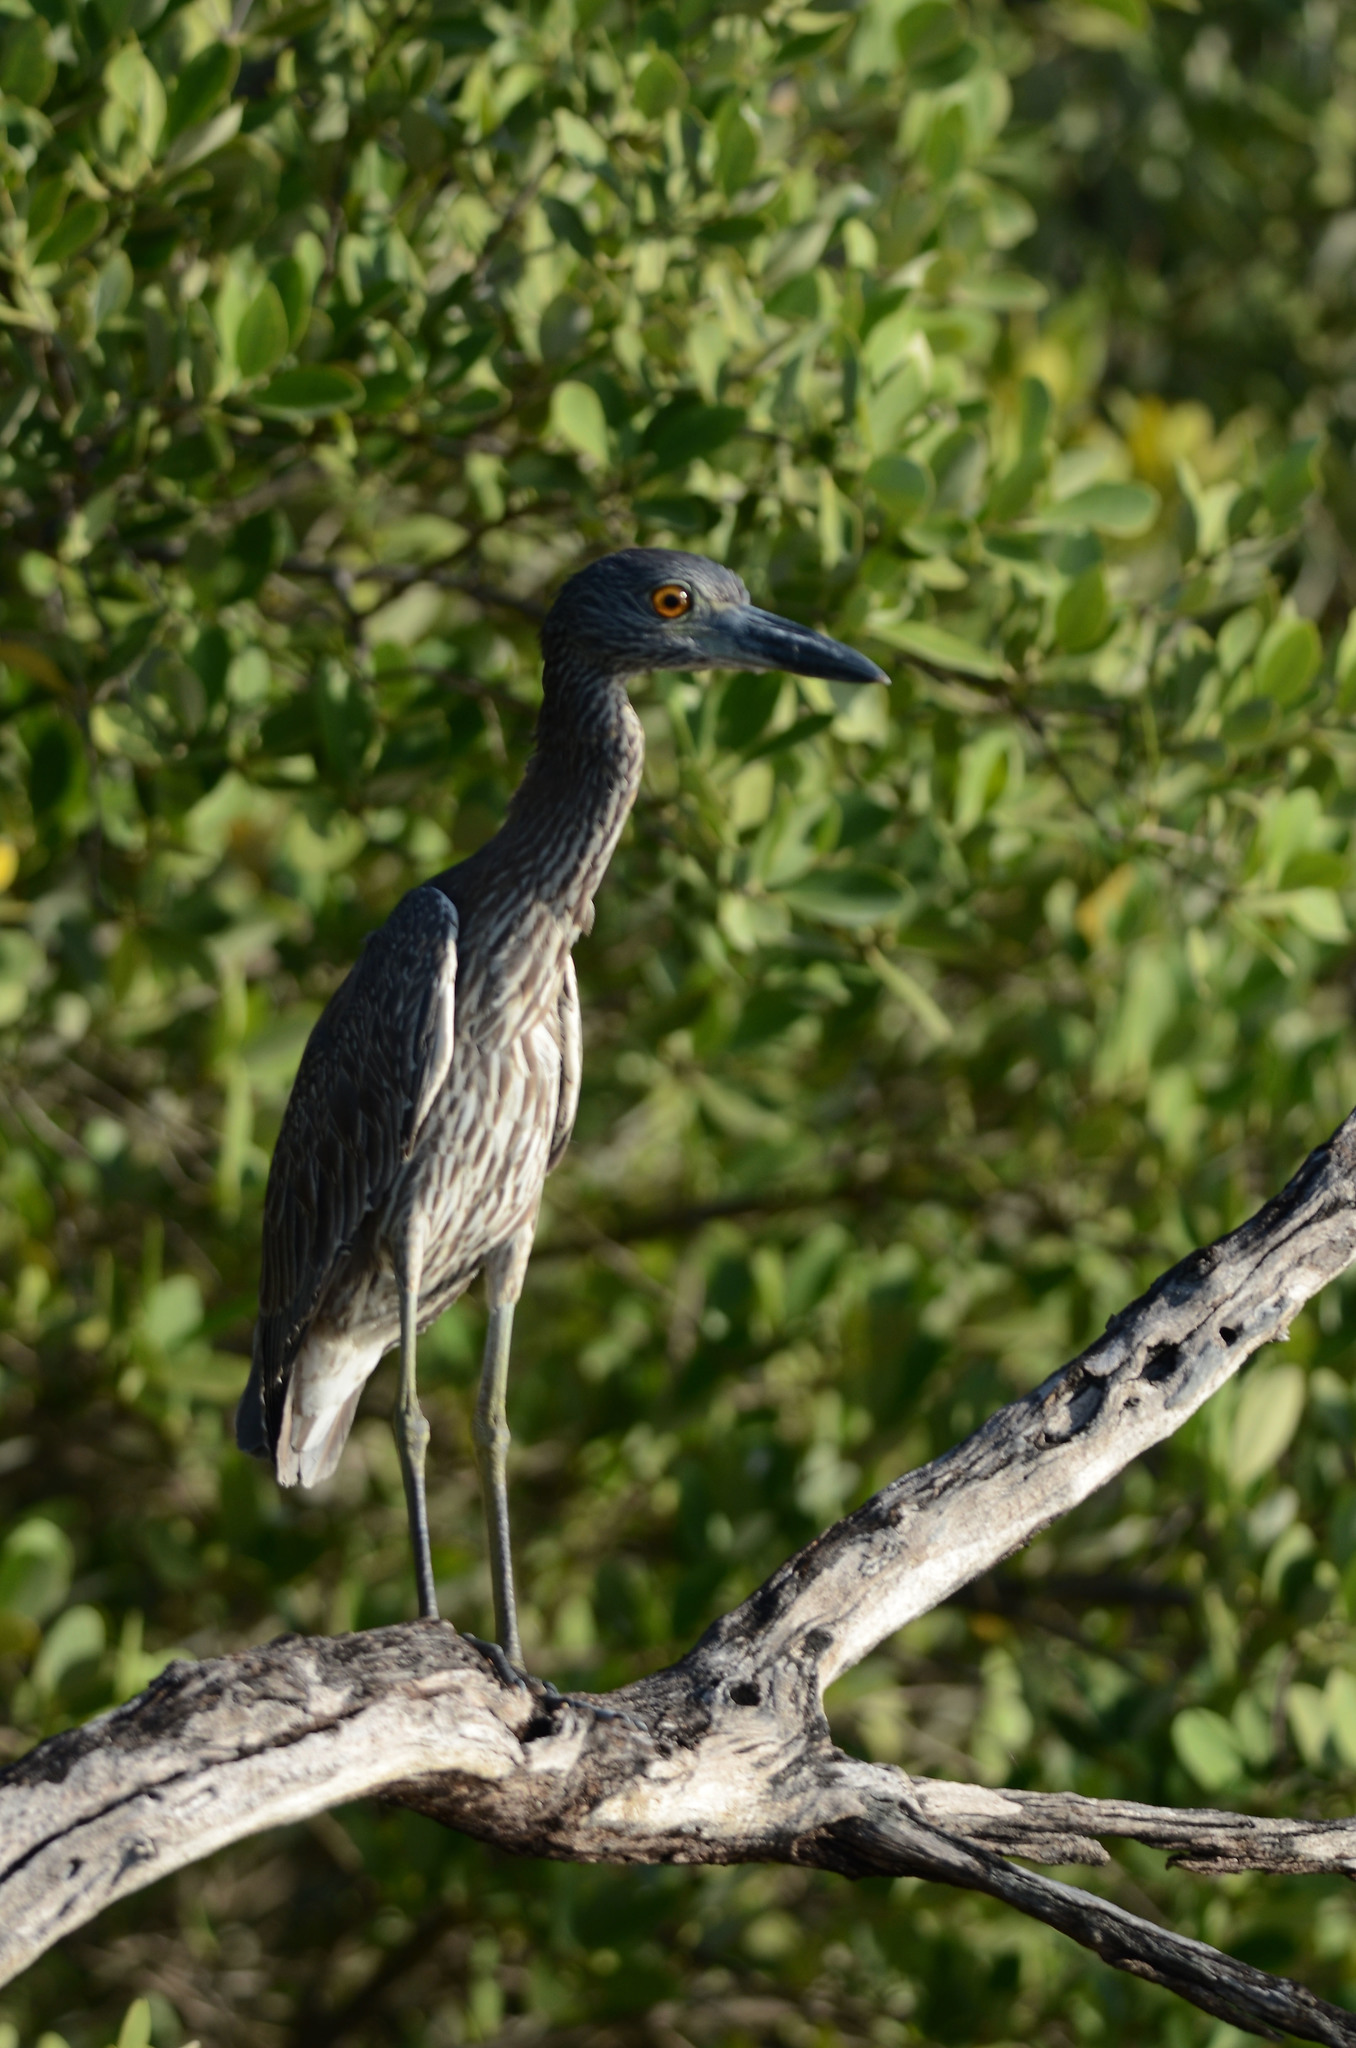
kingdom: Animalia
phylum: Chordata
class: Aves
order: Pelecaniformes
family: Ardeidae
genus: Nyctanassa
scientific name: Nyctanassa violacea
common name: Yellow-crowned night heron
